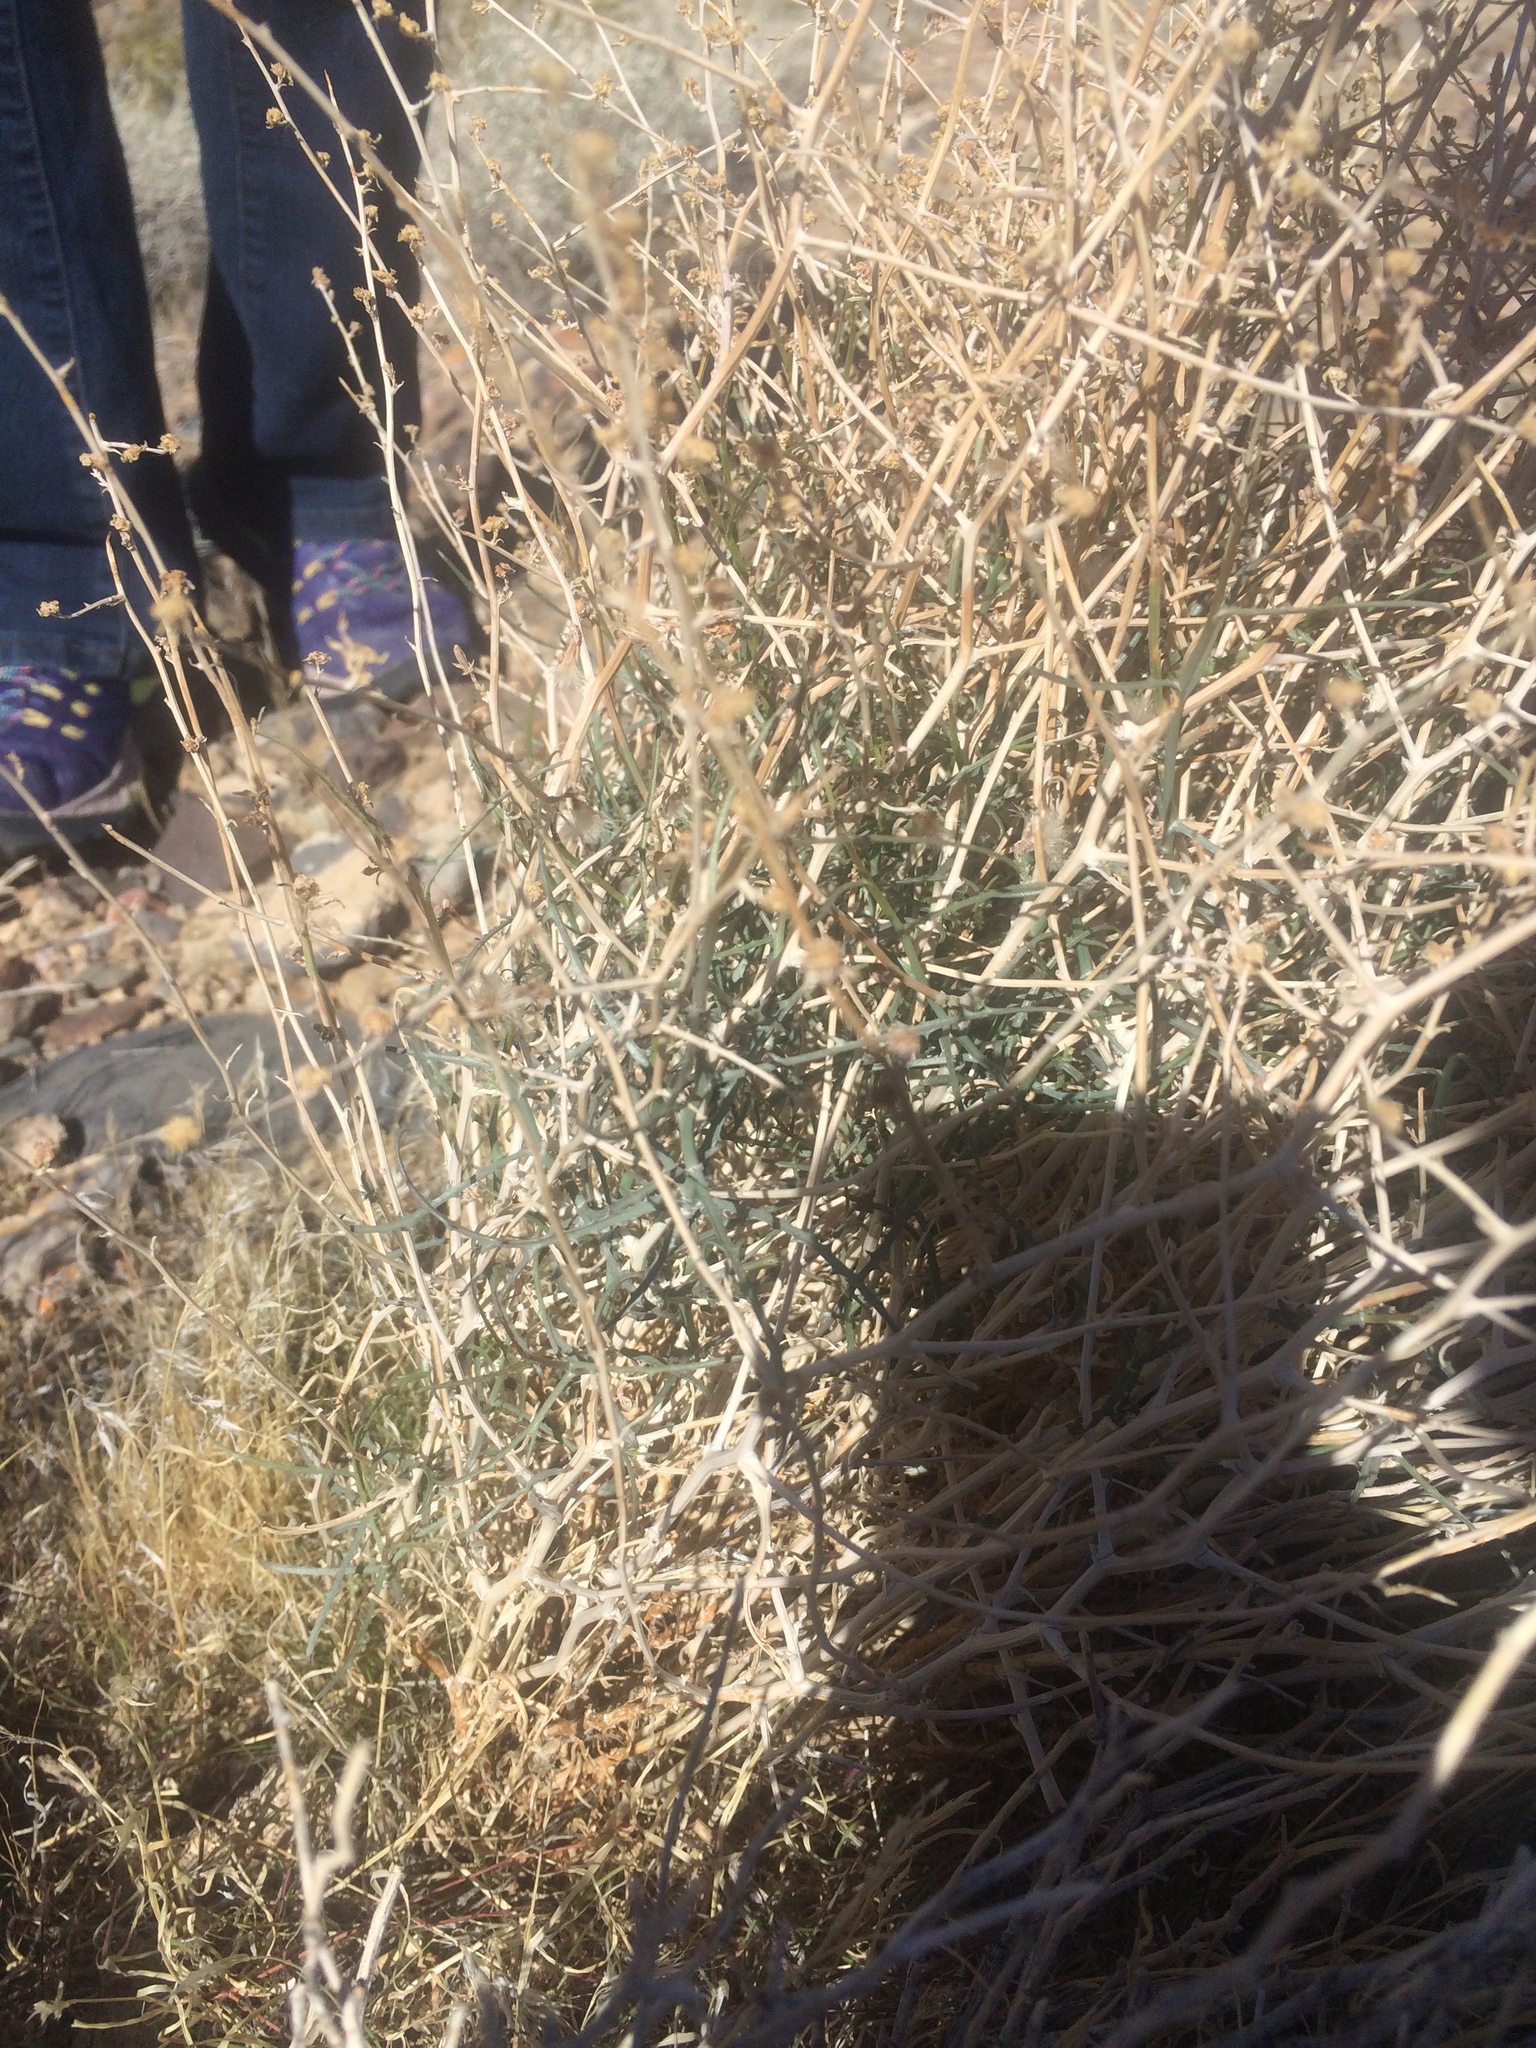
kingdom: Plantae
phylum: Tracheophyta
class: Magnoliopsida
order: Asterales
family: Asteraceae
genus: Stephanomeria
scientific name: Stephanomeria pauciflora
